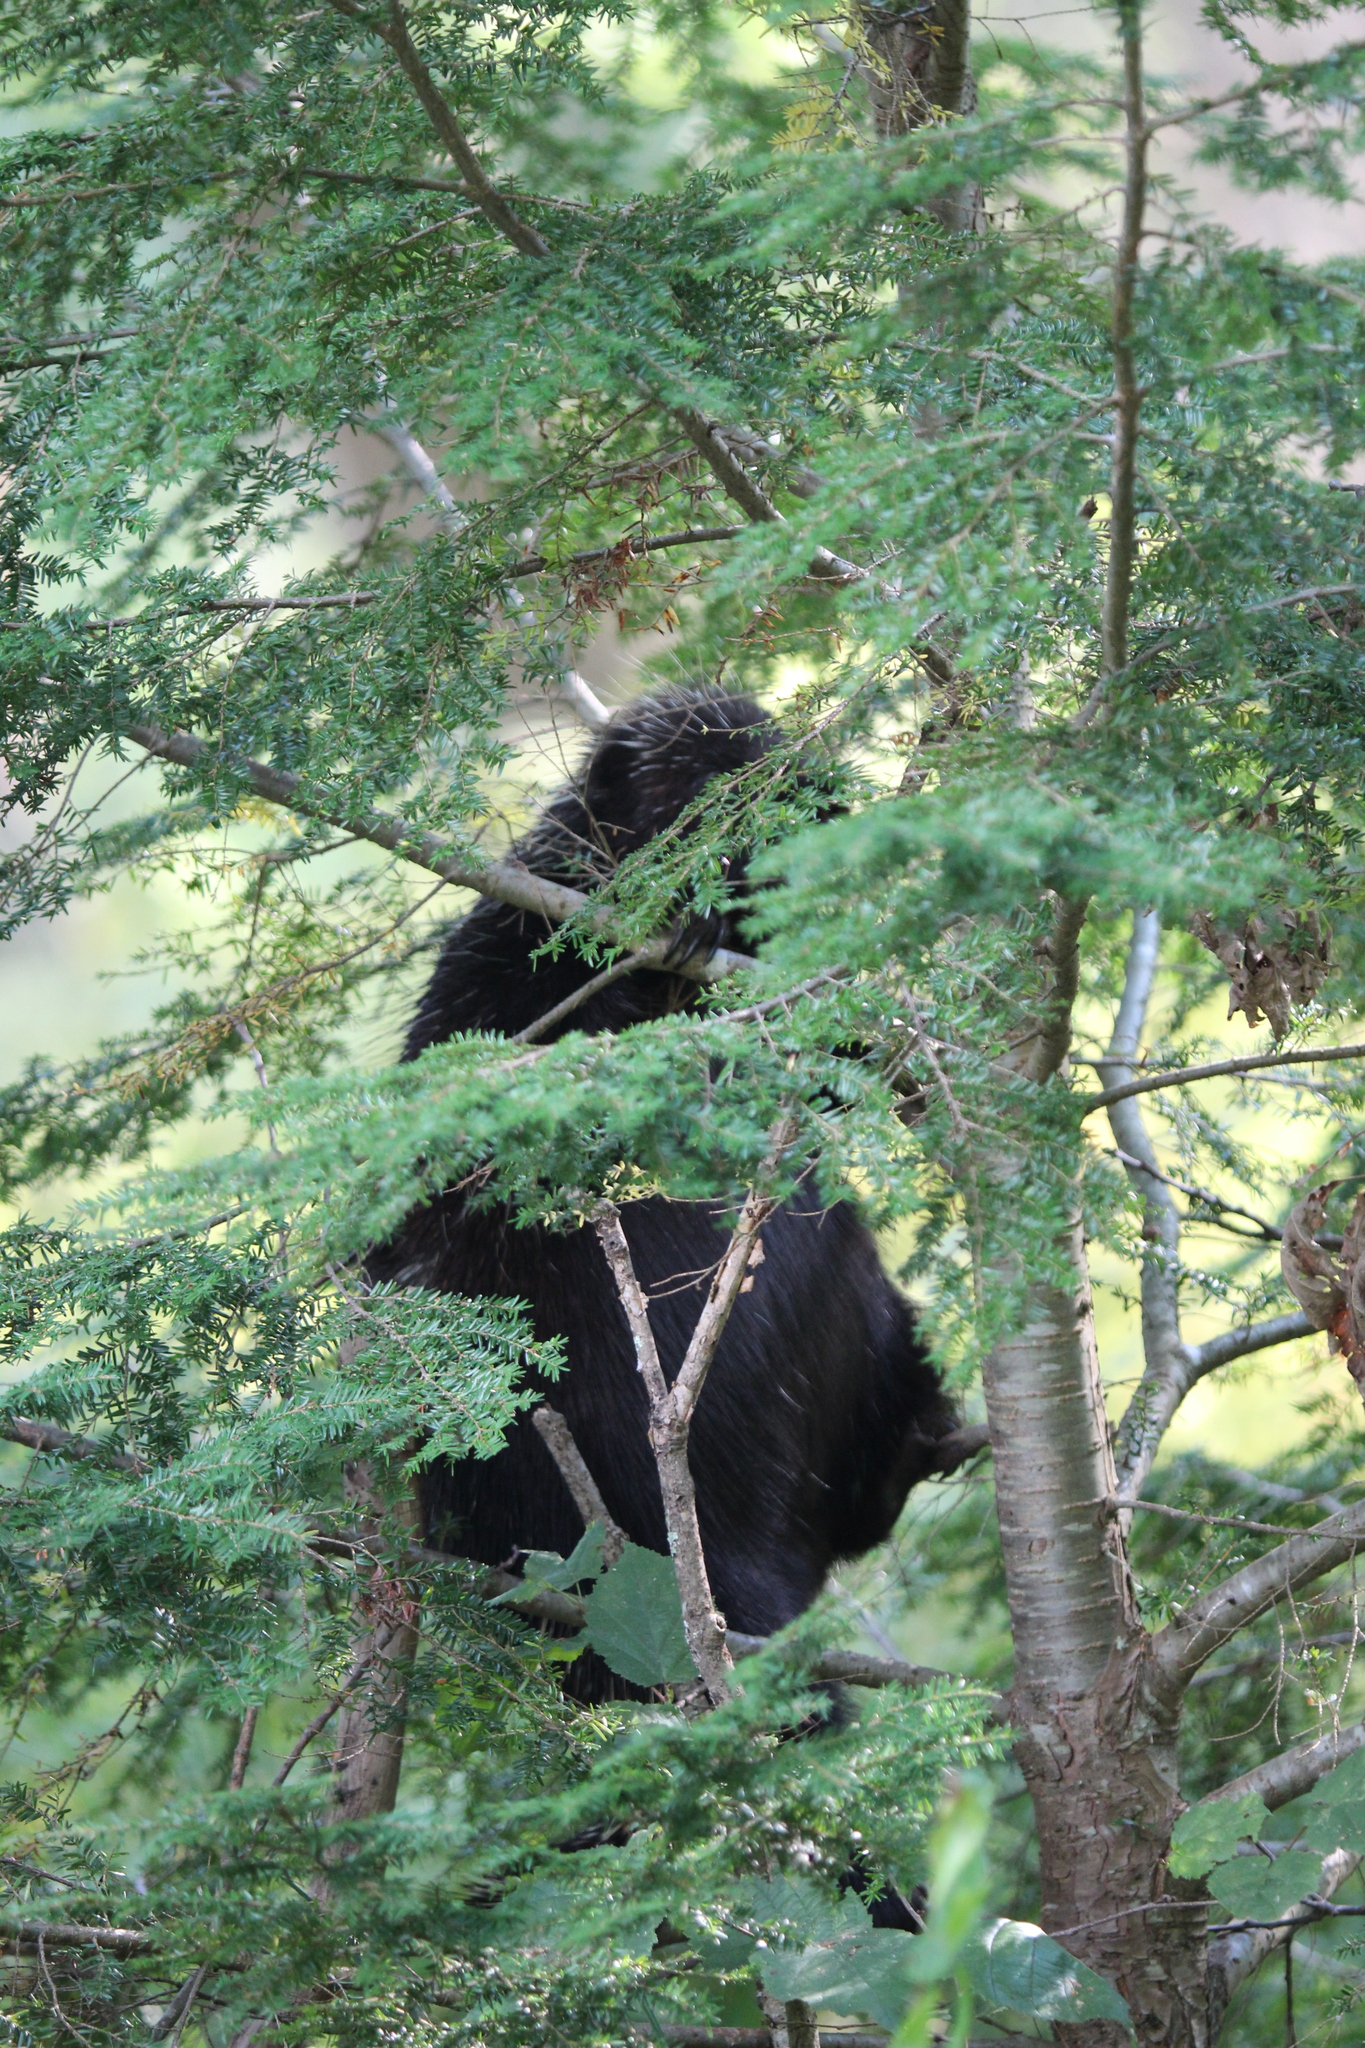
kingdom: Animalia
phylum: Chordata
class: Mammalia
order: Rodentia
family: Erethizontidae
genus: Erethizon
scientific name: Erethizon dorsatus
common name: North american porcupine
